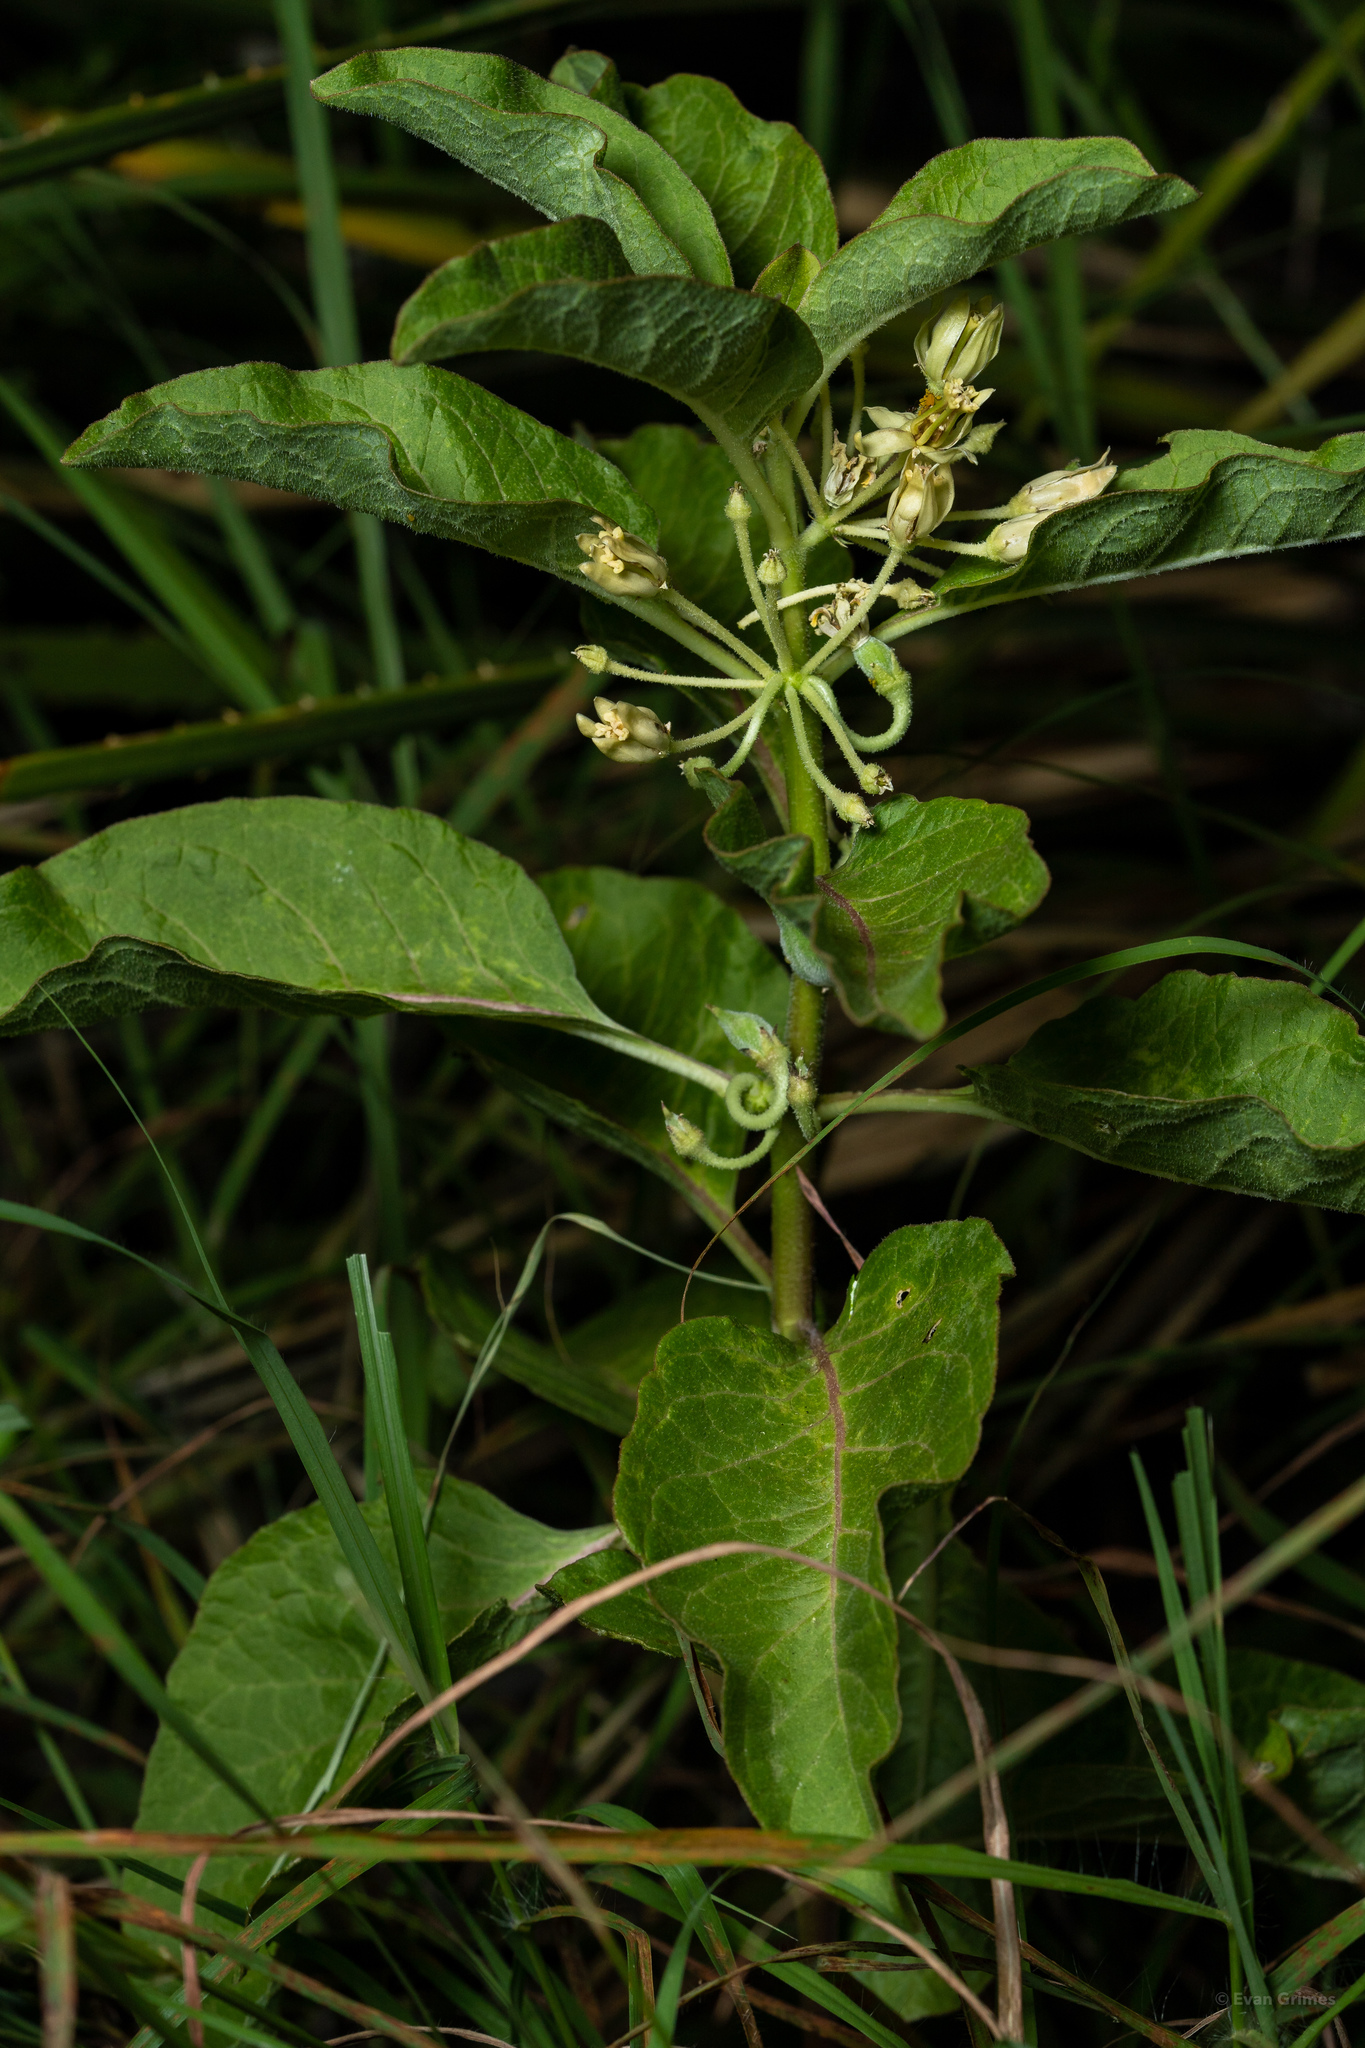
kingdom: Plantae
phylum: Tracheophyta
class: Magnoliopsida
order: Gentianales
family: Apocynaceae
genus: Asclepias
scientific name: Asclepias oenotheroides
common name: Zizotes milkweed
